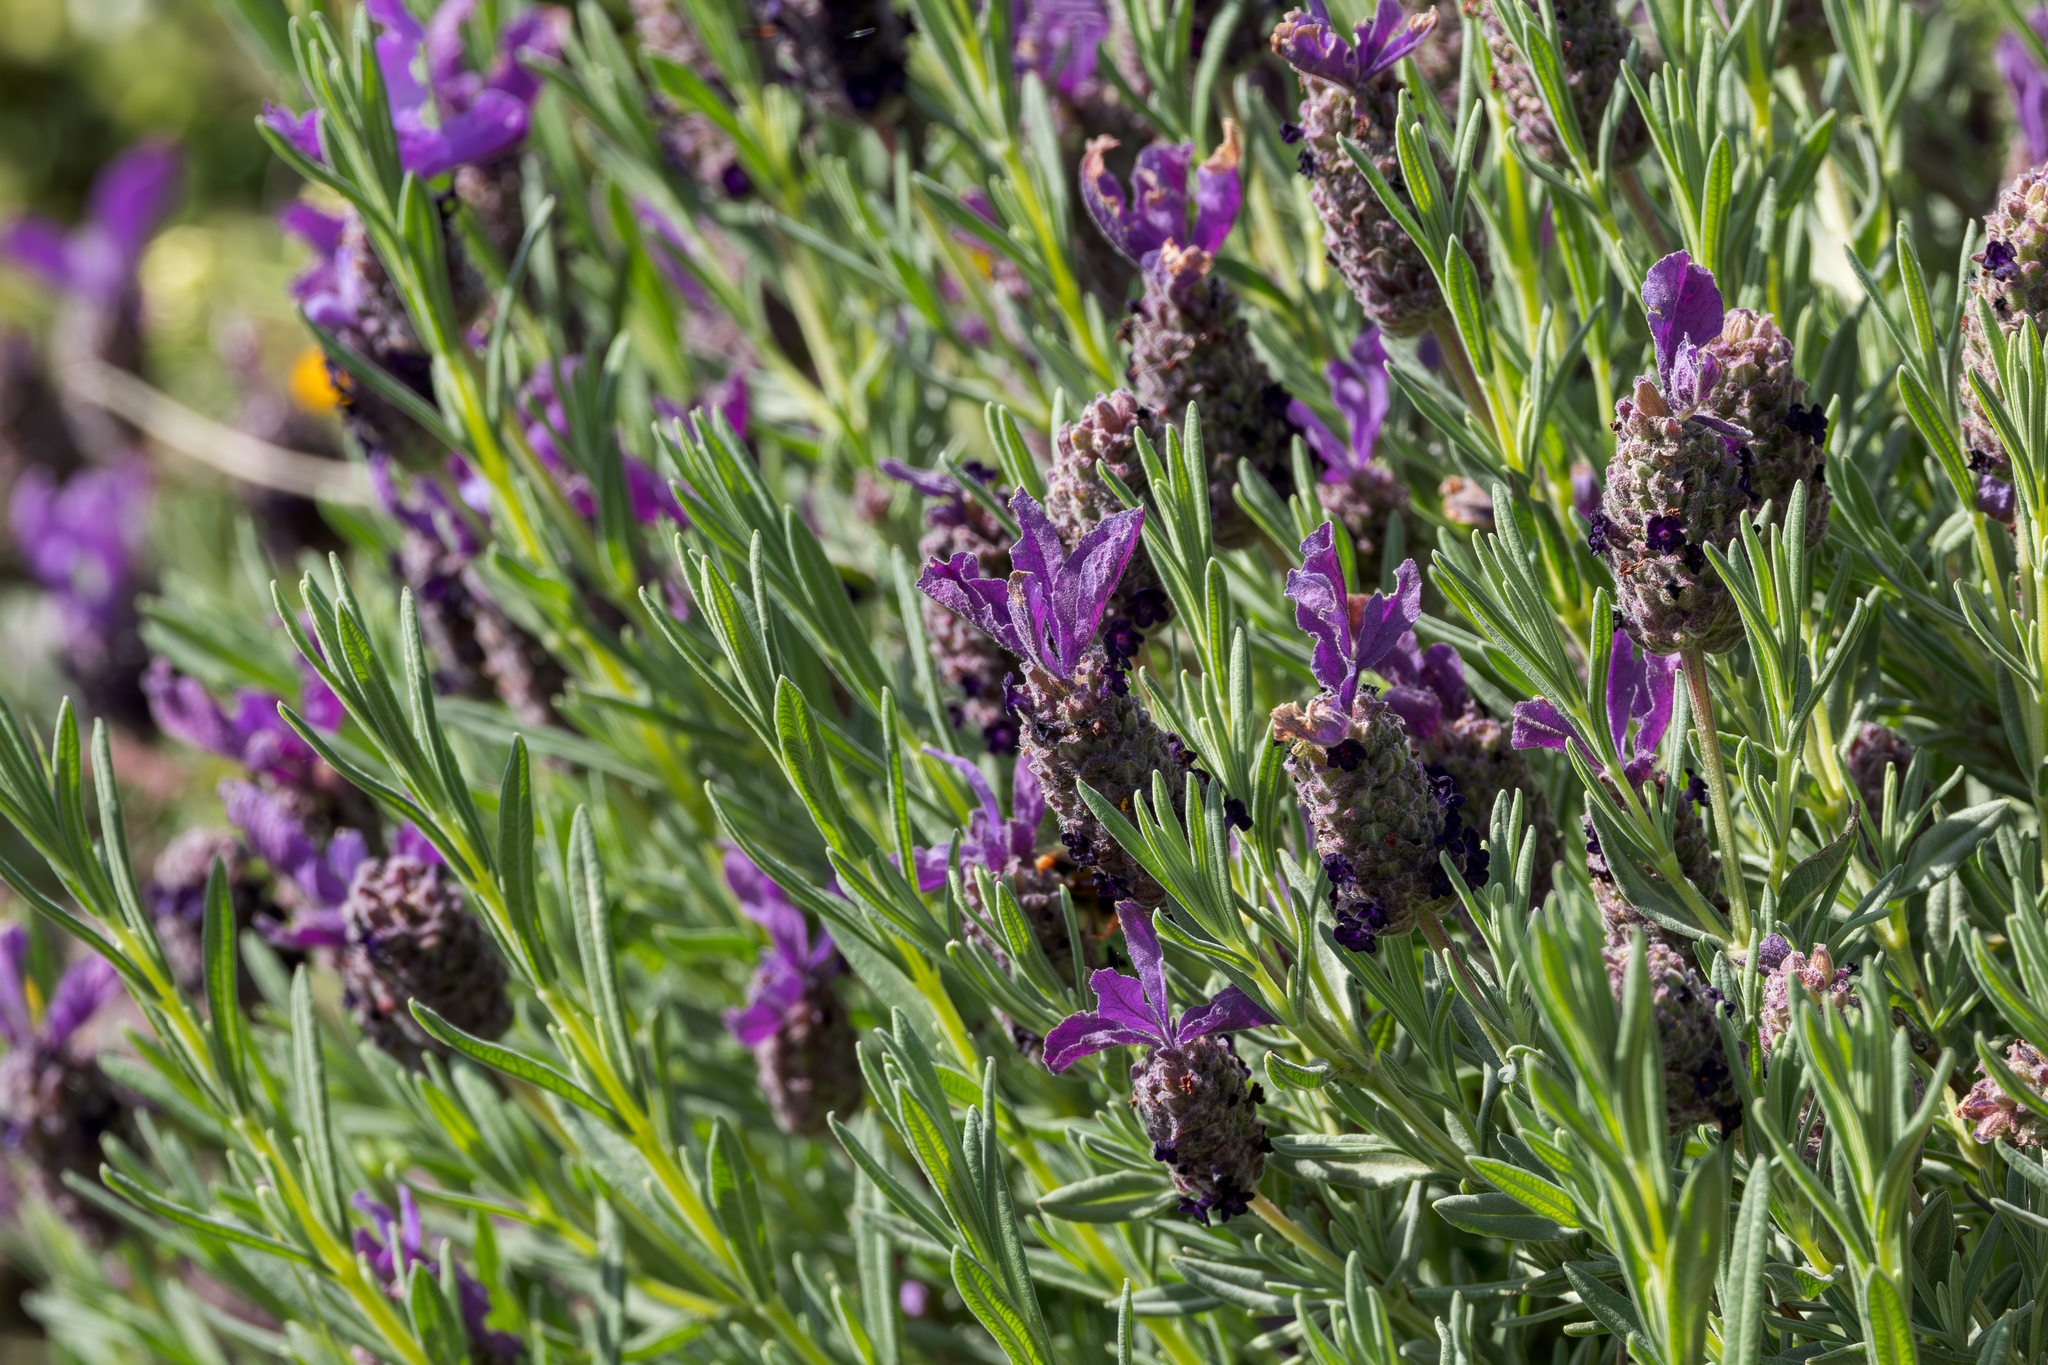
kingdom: Plantae
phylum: Tracheophyta
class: Magnoliopsida
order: Lamiales
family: Lamiaceae
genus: Lavandula
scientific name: Lavandula stoechas
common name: French lavender
